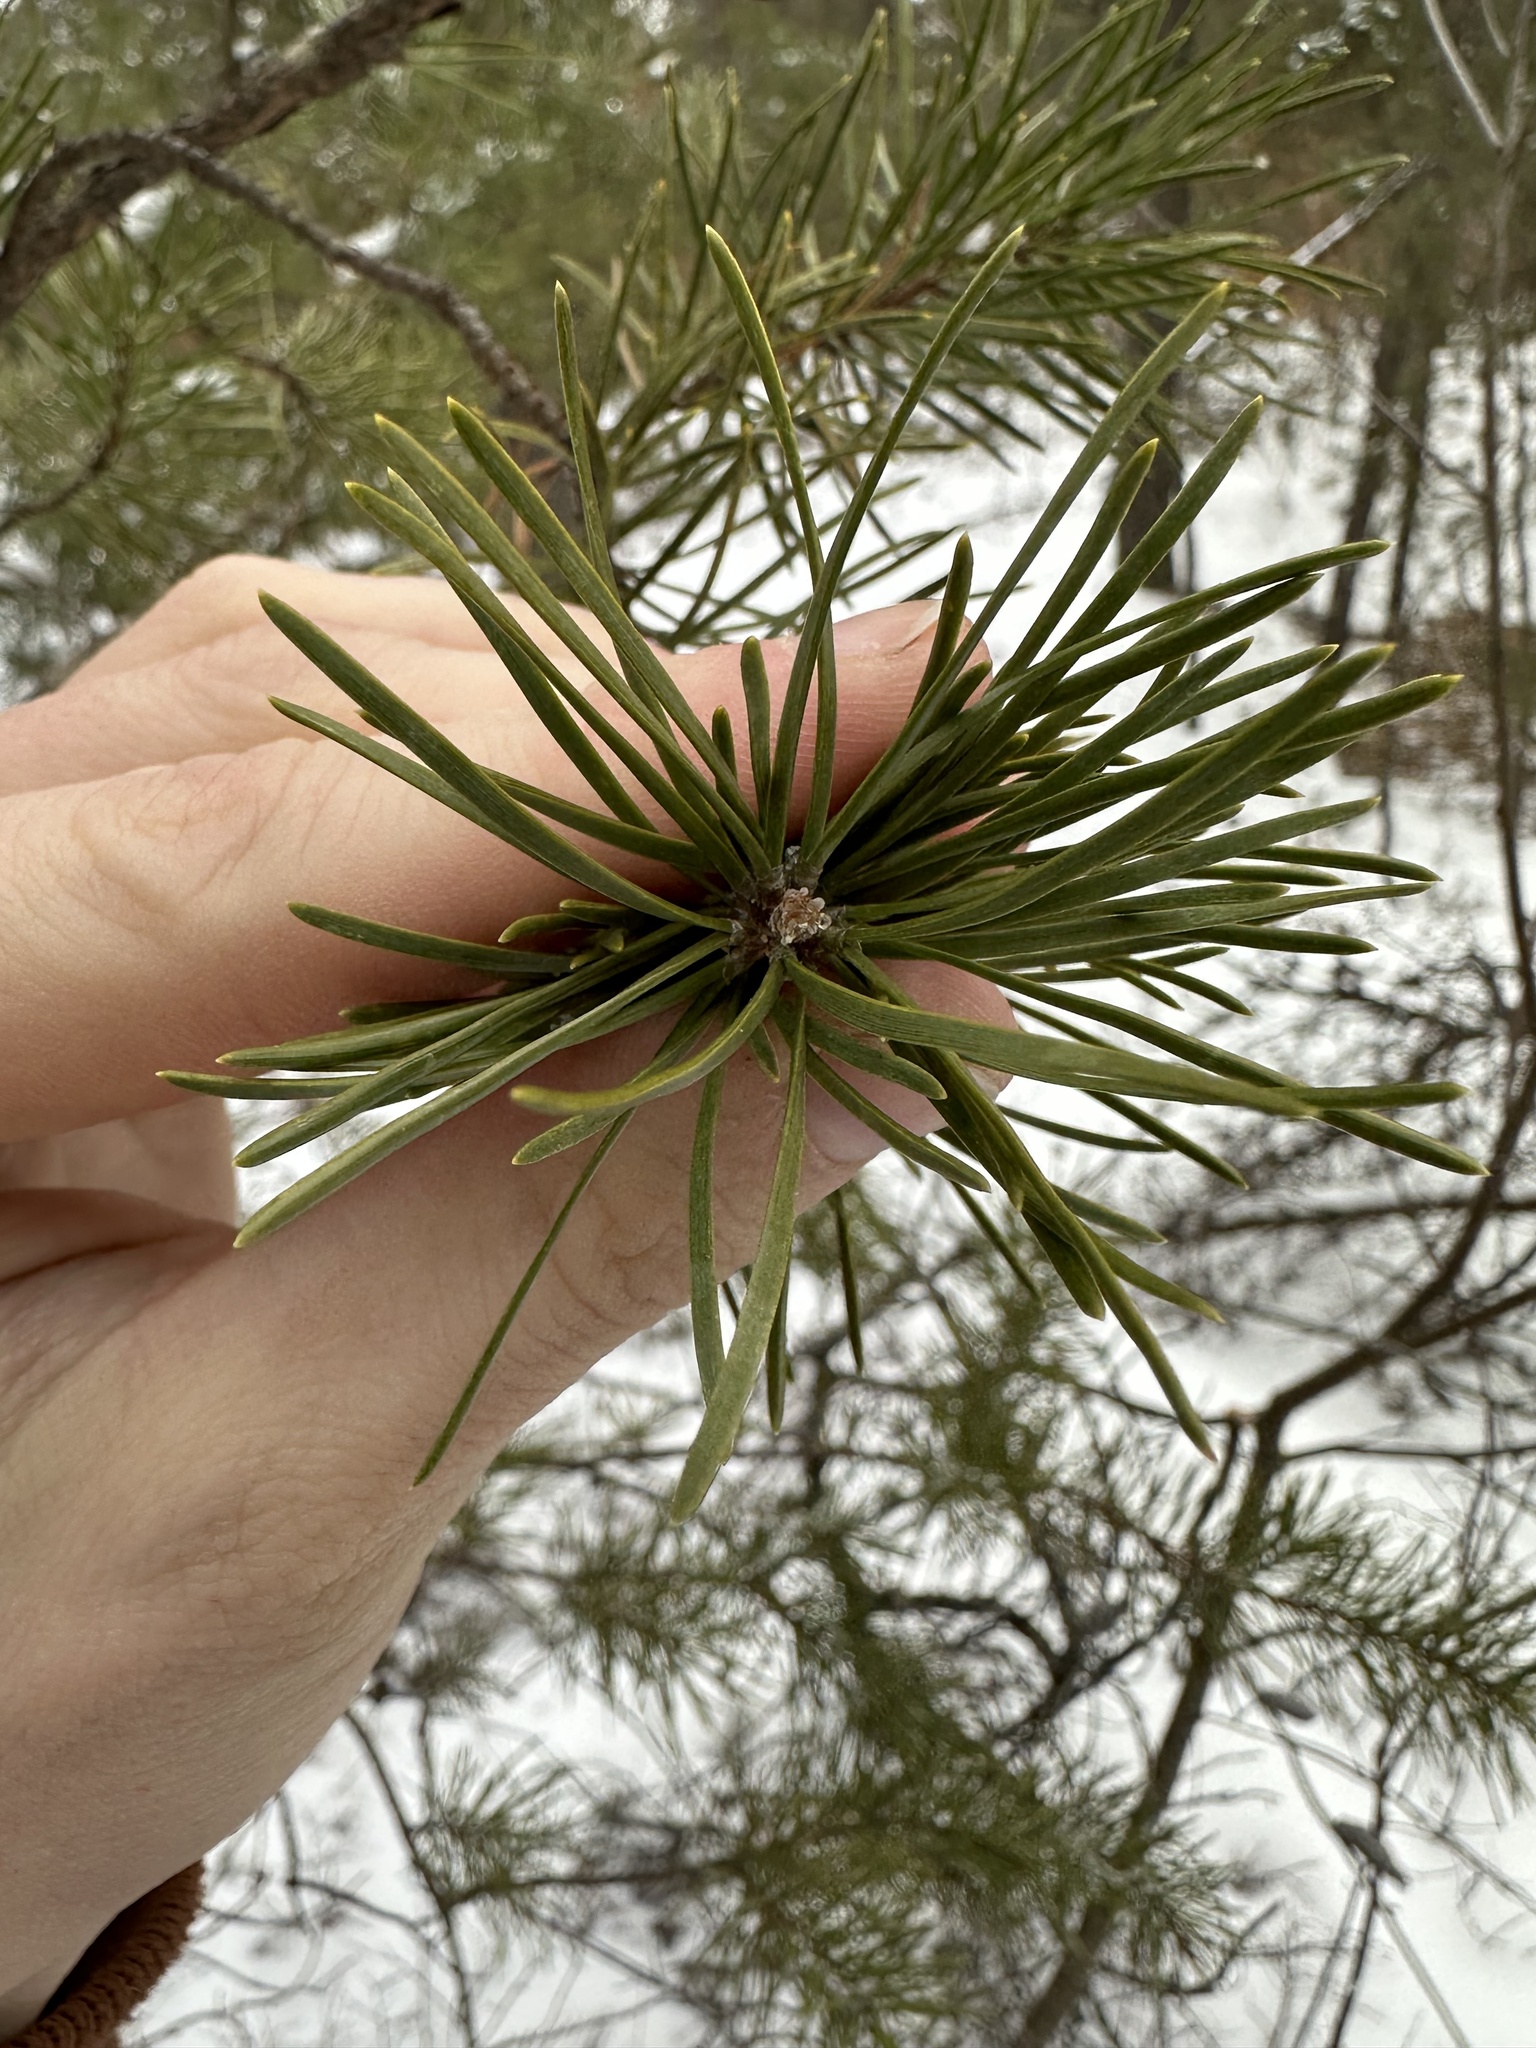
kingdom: Plantae
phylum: Tracheophyta
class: Pinopsida
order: Pinales
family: Pinaceae
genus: Pinus
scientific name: Pinus banksiana
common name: Jack pine
